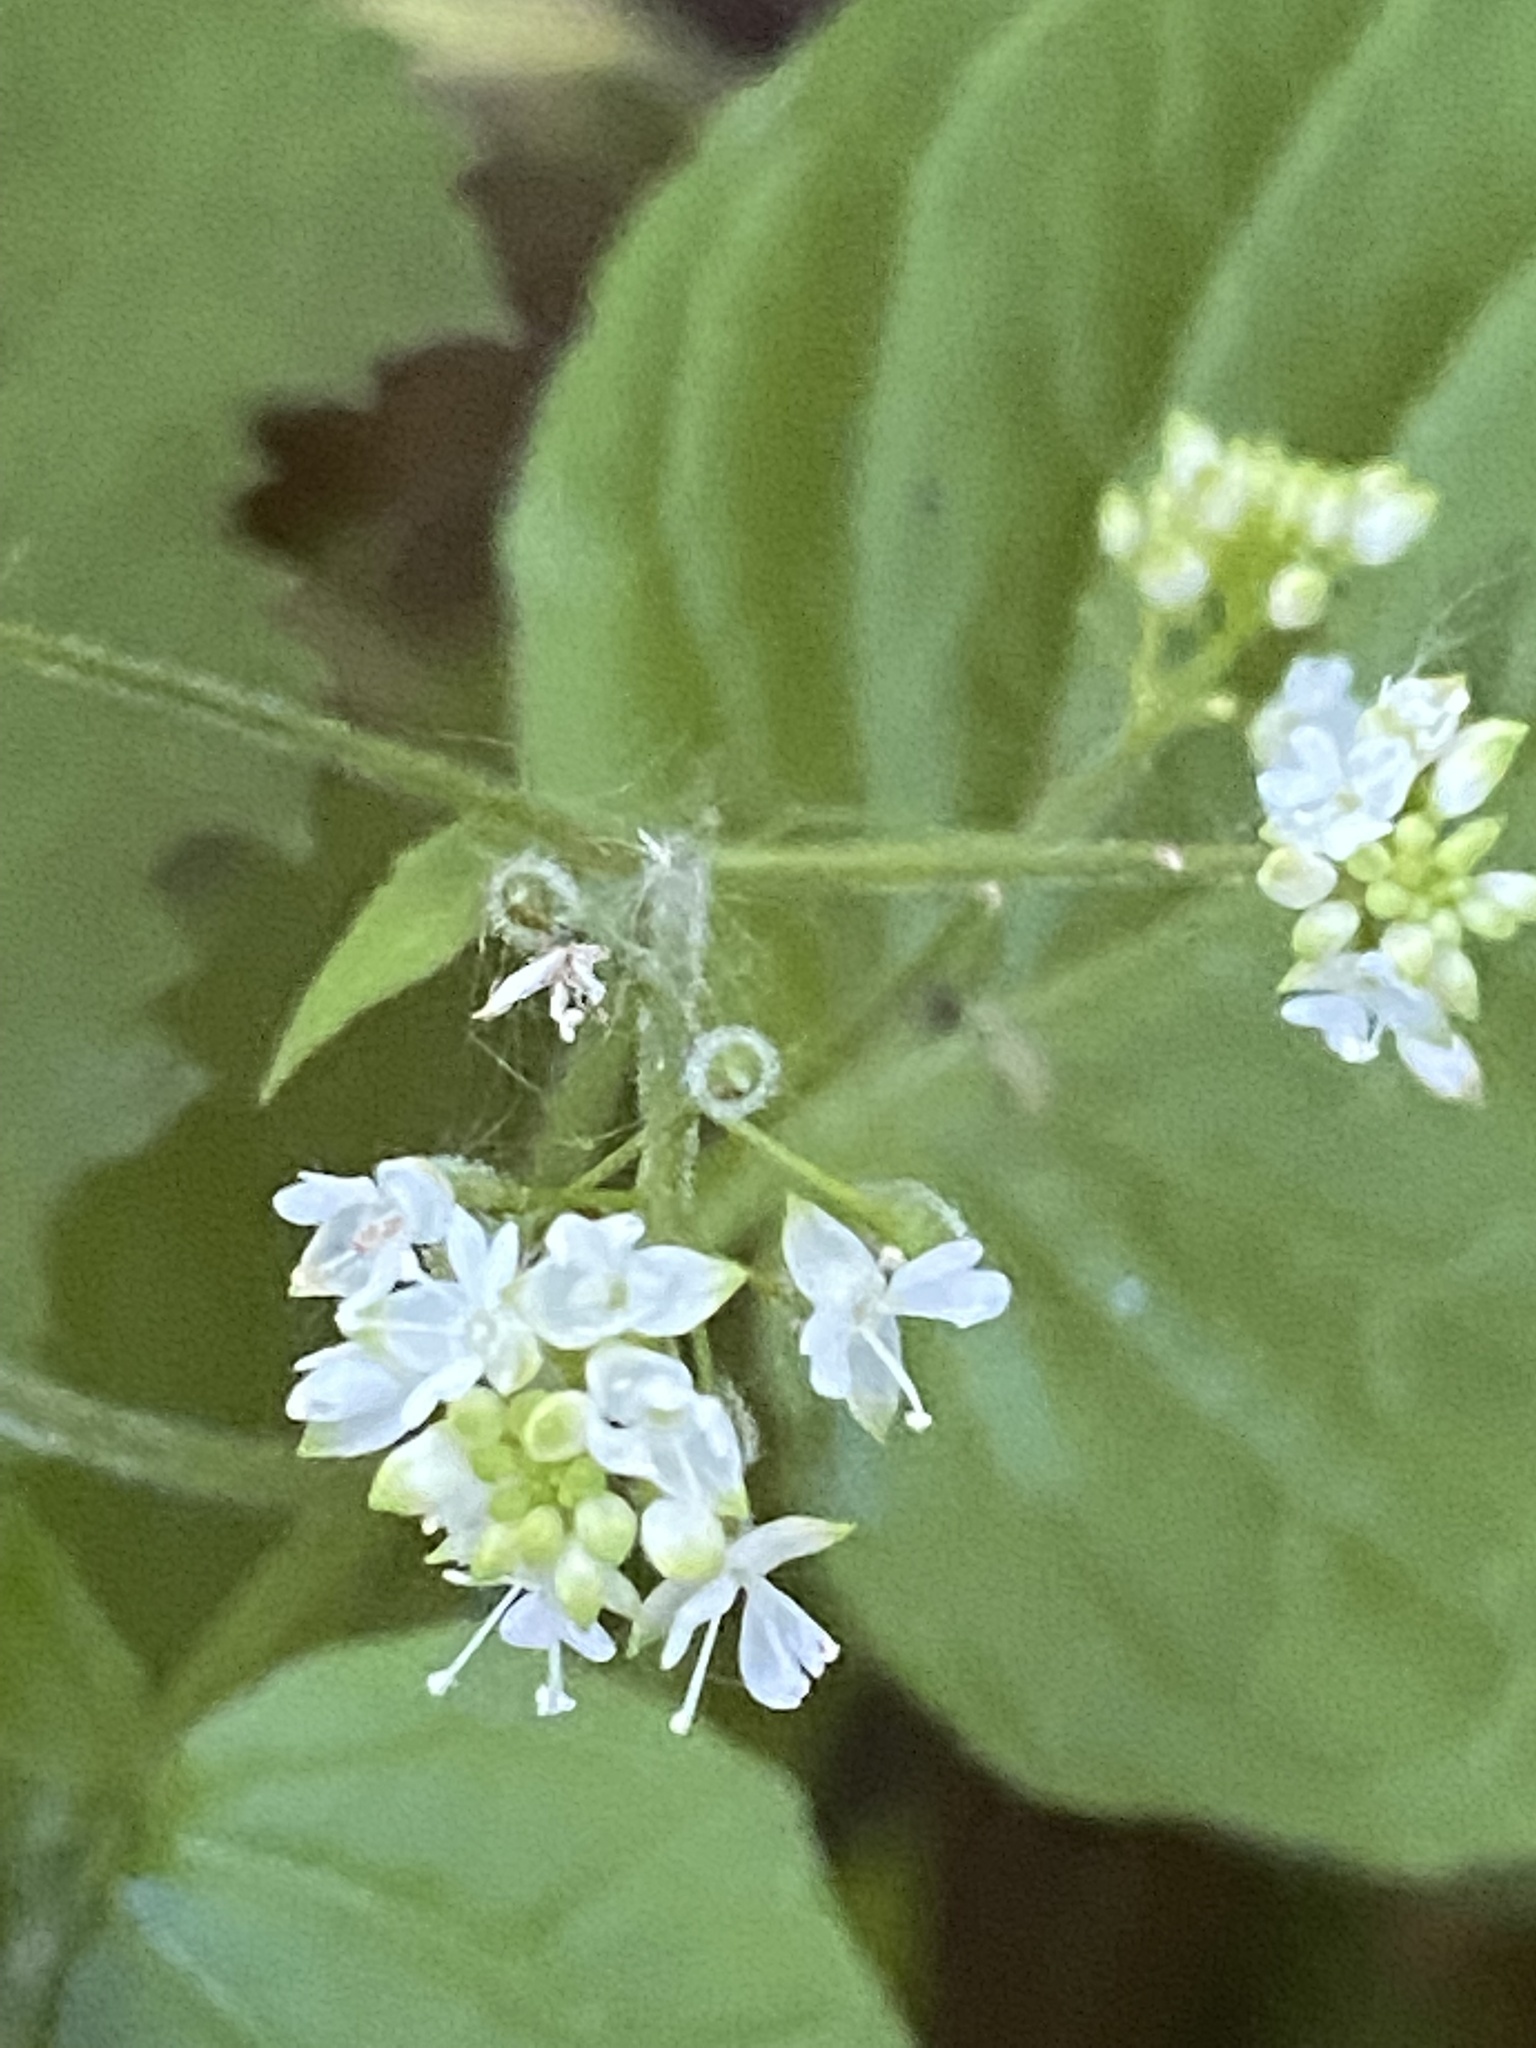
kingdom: Plantae
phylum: Tracheophyta
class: Magnoliopsida
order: Myrtales
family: Onagraceae
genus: Circaea
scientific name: Circaea alpina
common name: Alpine enchanter's-nightshade
